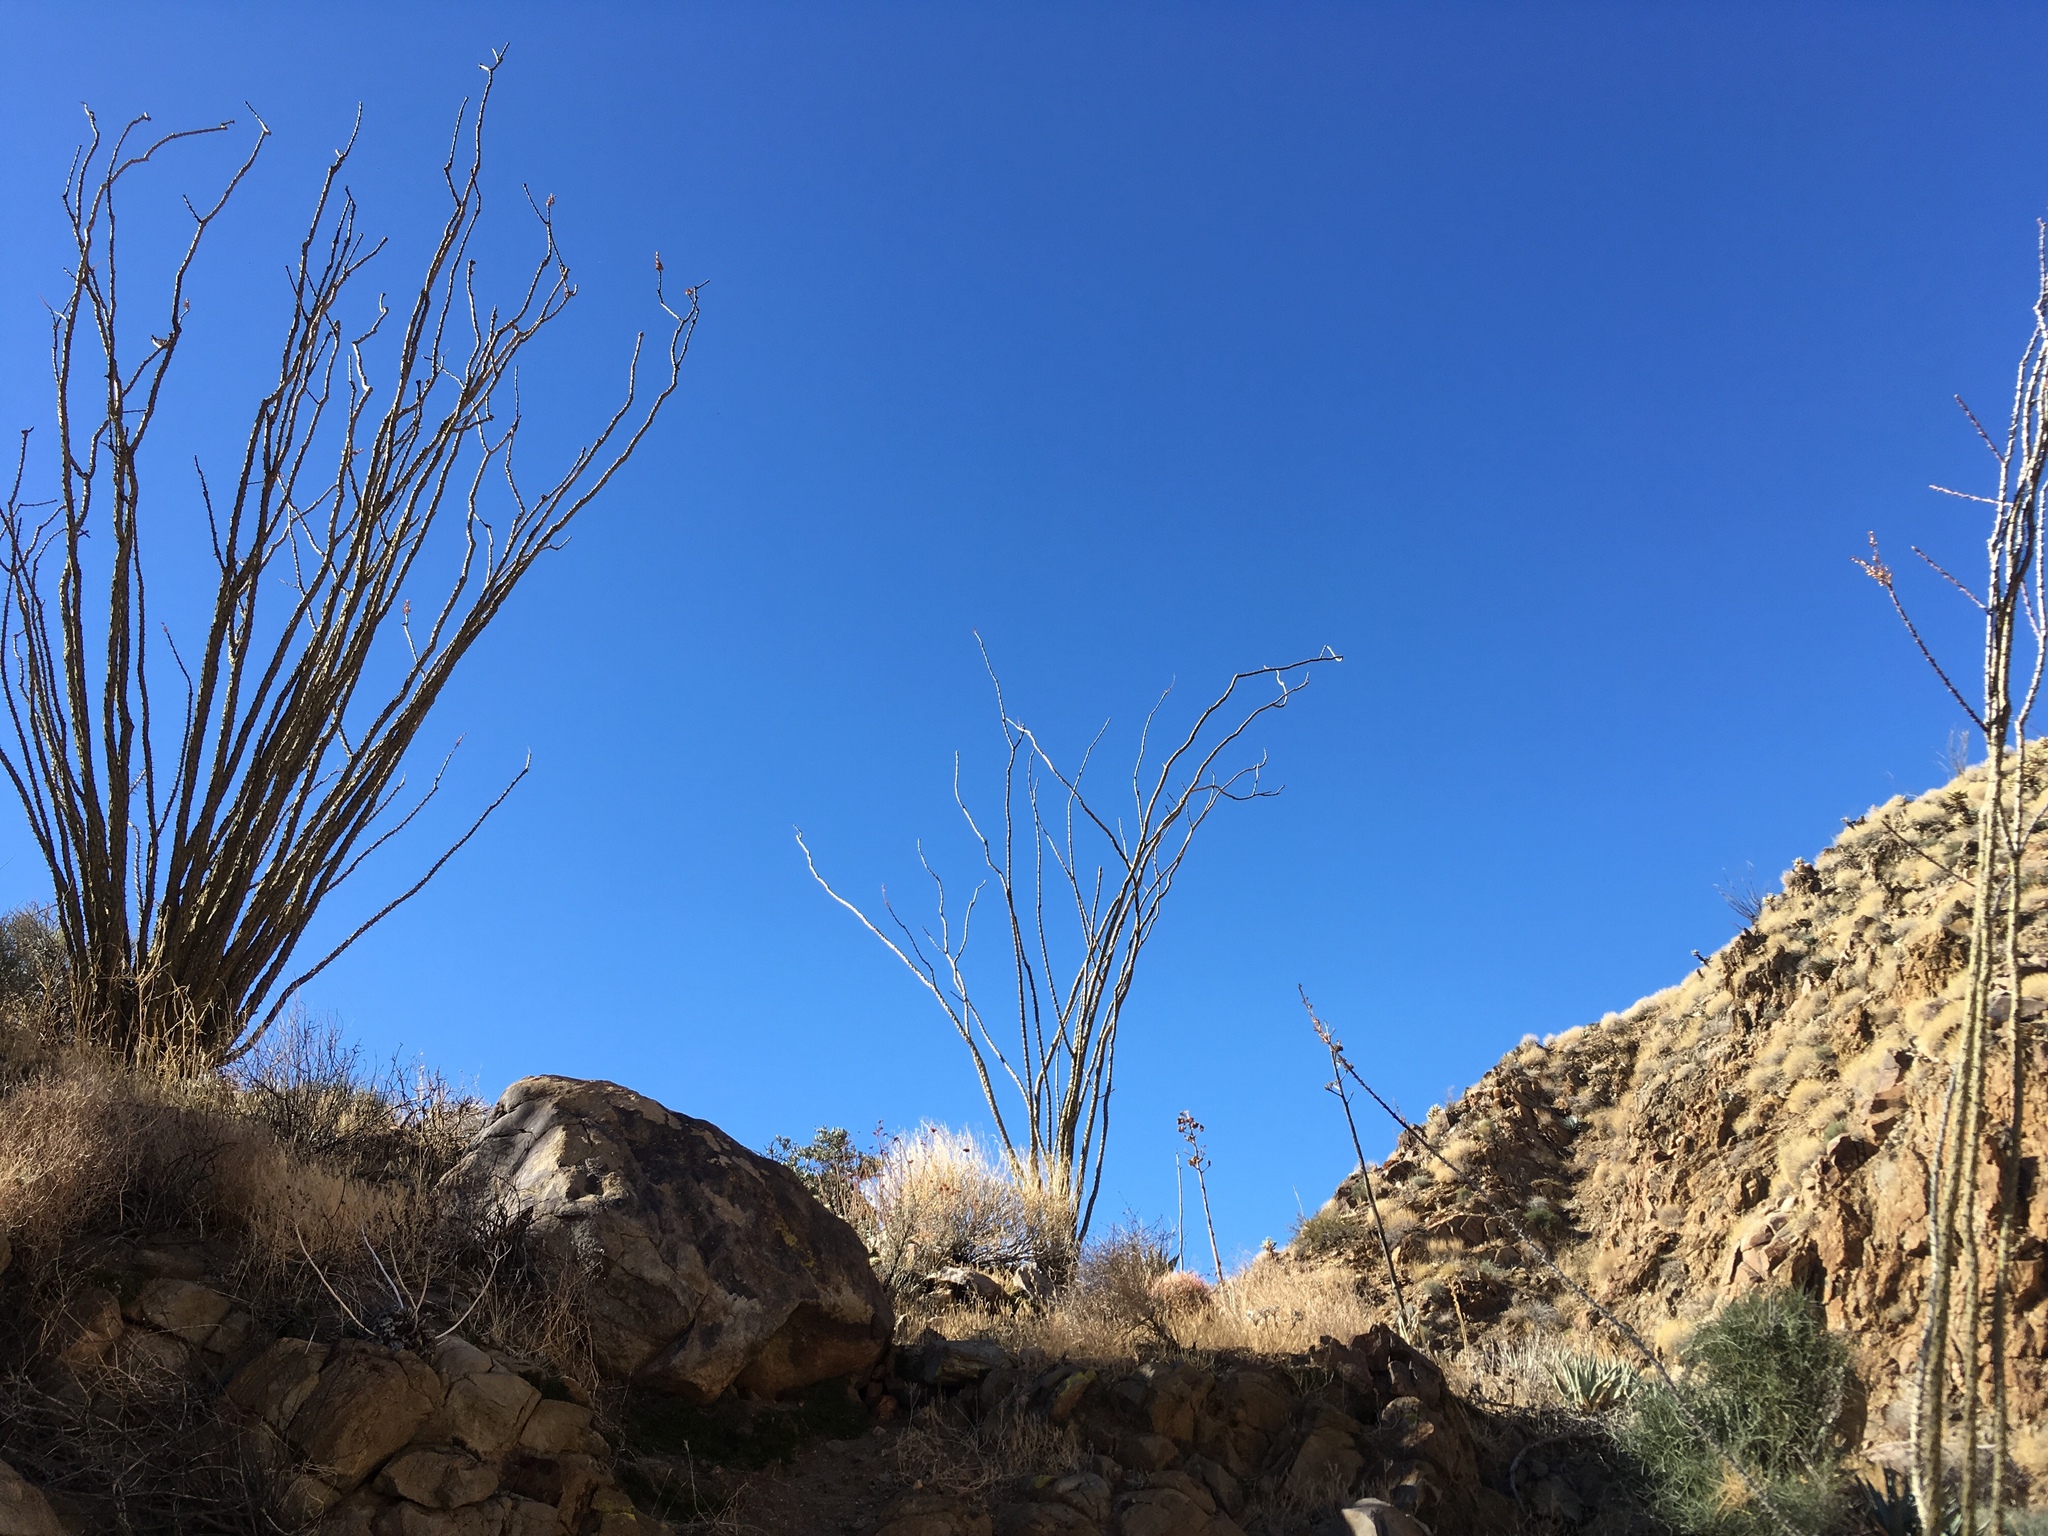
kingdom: Plantae
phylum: Tracheophyta
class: Magnoliopsida
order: Ericales
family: Fouquieriaceae
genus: Fouquieria
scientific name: Fouquieria splendens
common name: Vine-cactus
